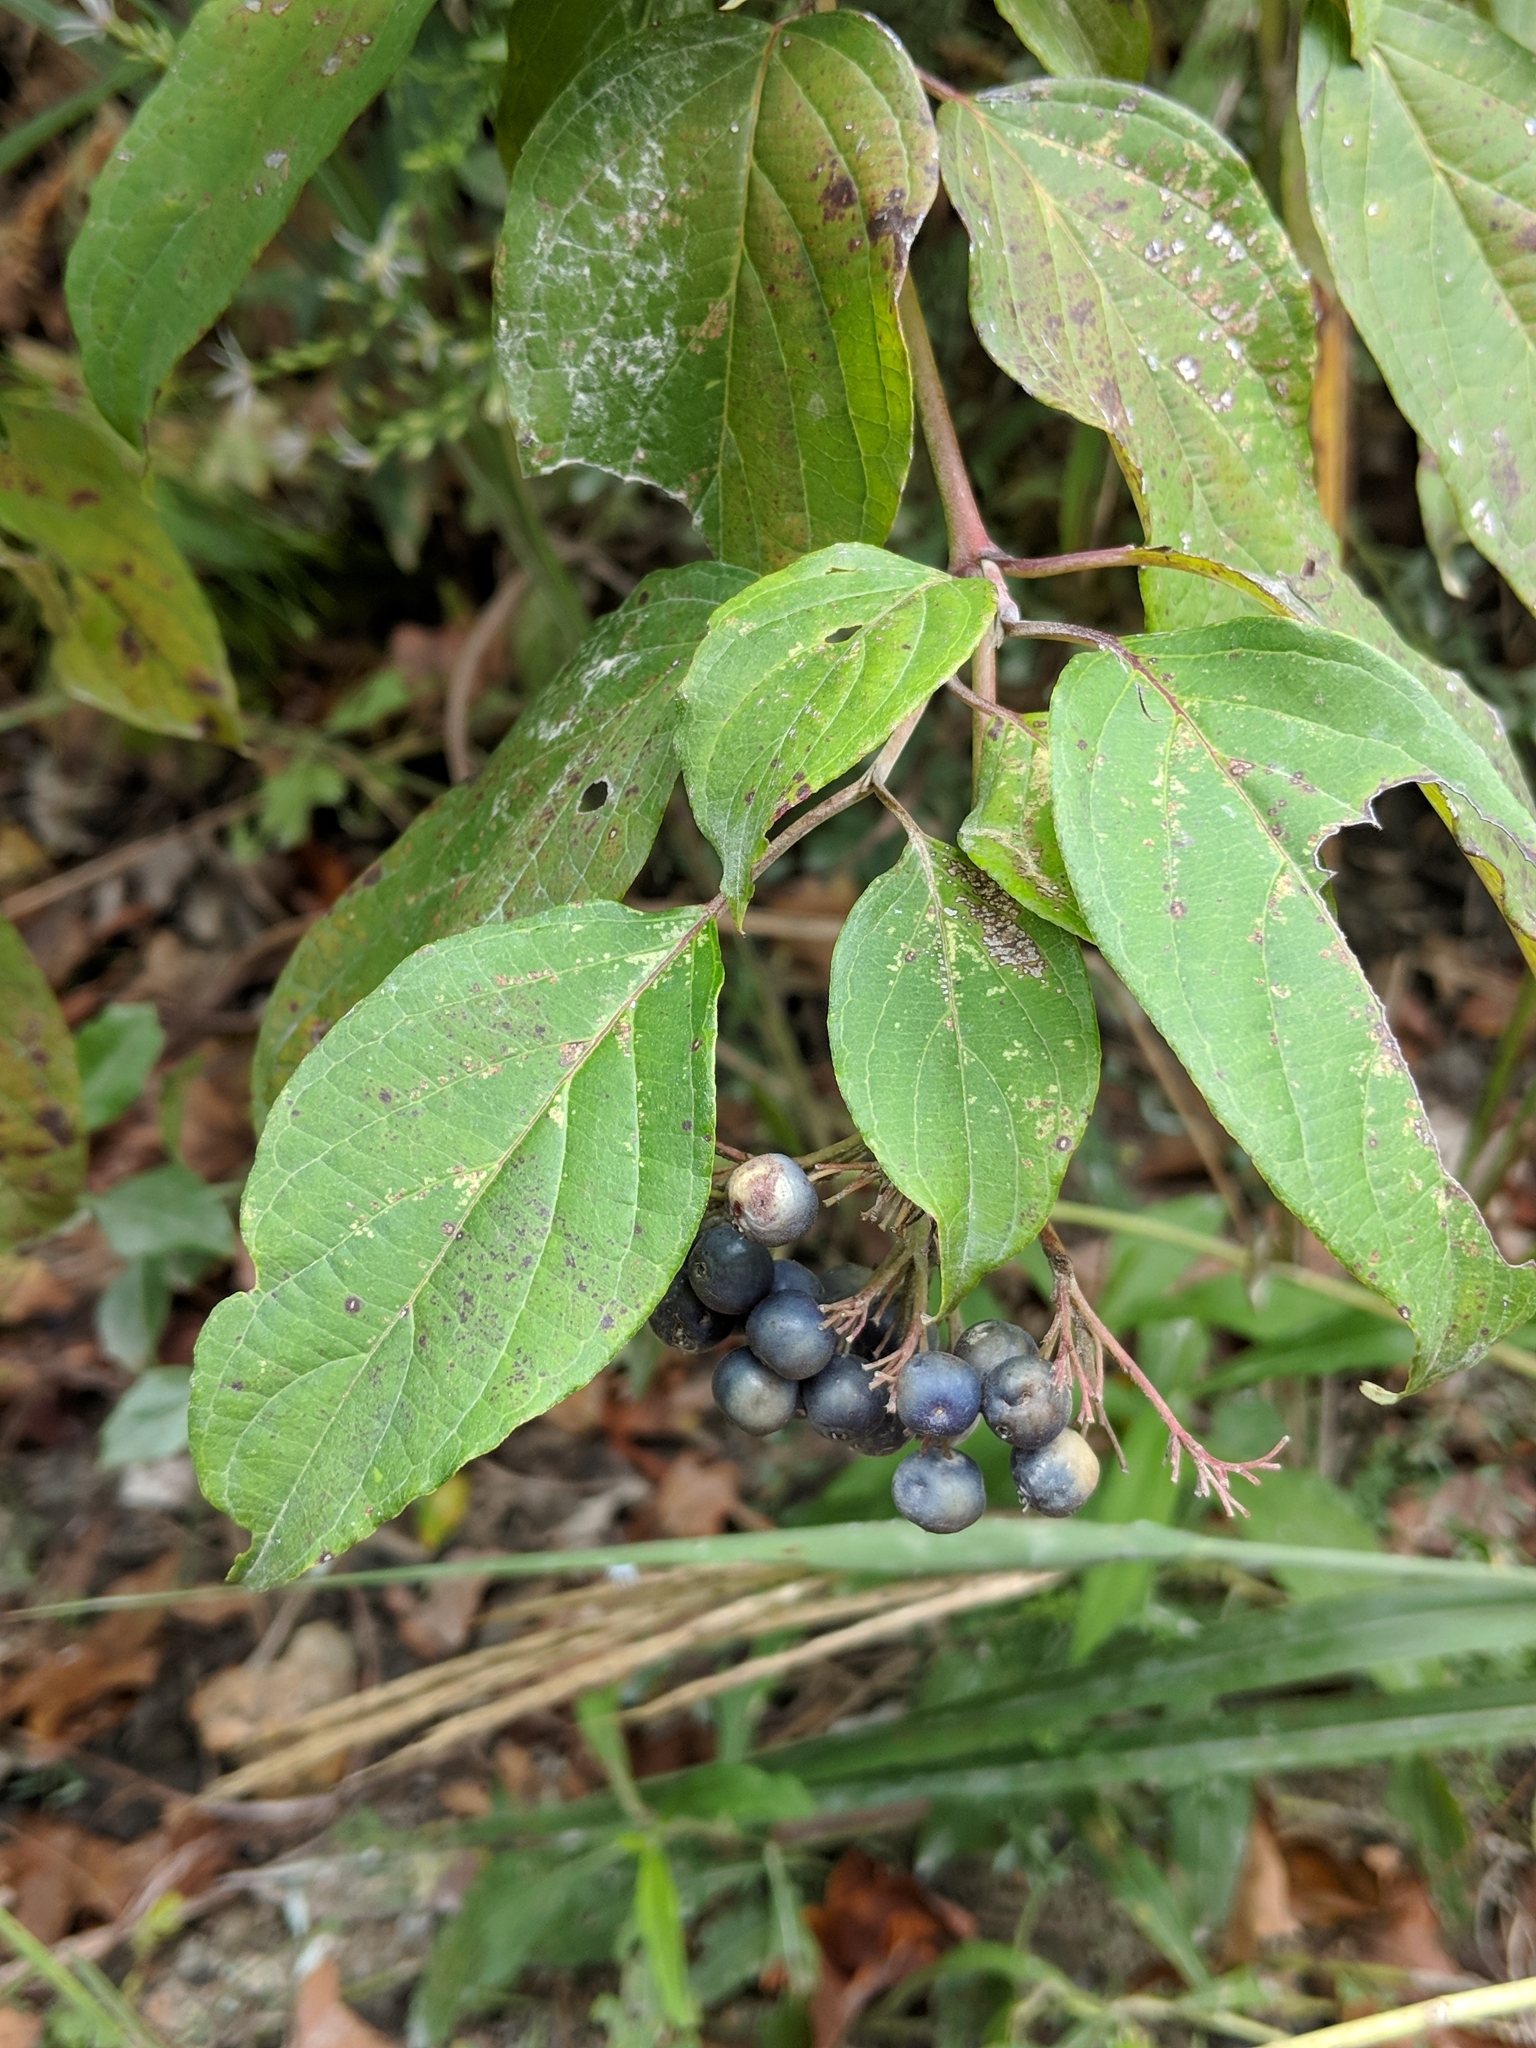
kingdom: Plantae
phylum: Tracheophyta
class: Magnoliopsida
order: Cornales
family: Cornaceae
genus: Cornus
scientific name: Cornus amomum
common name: Silky dogwood
